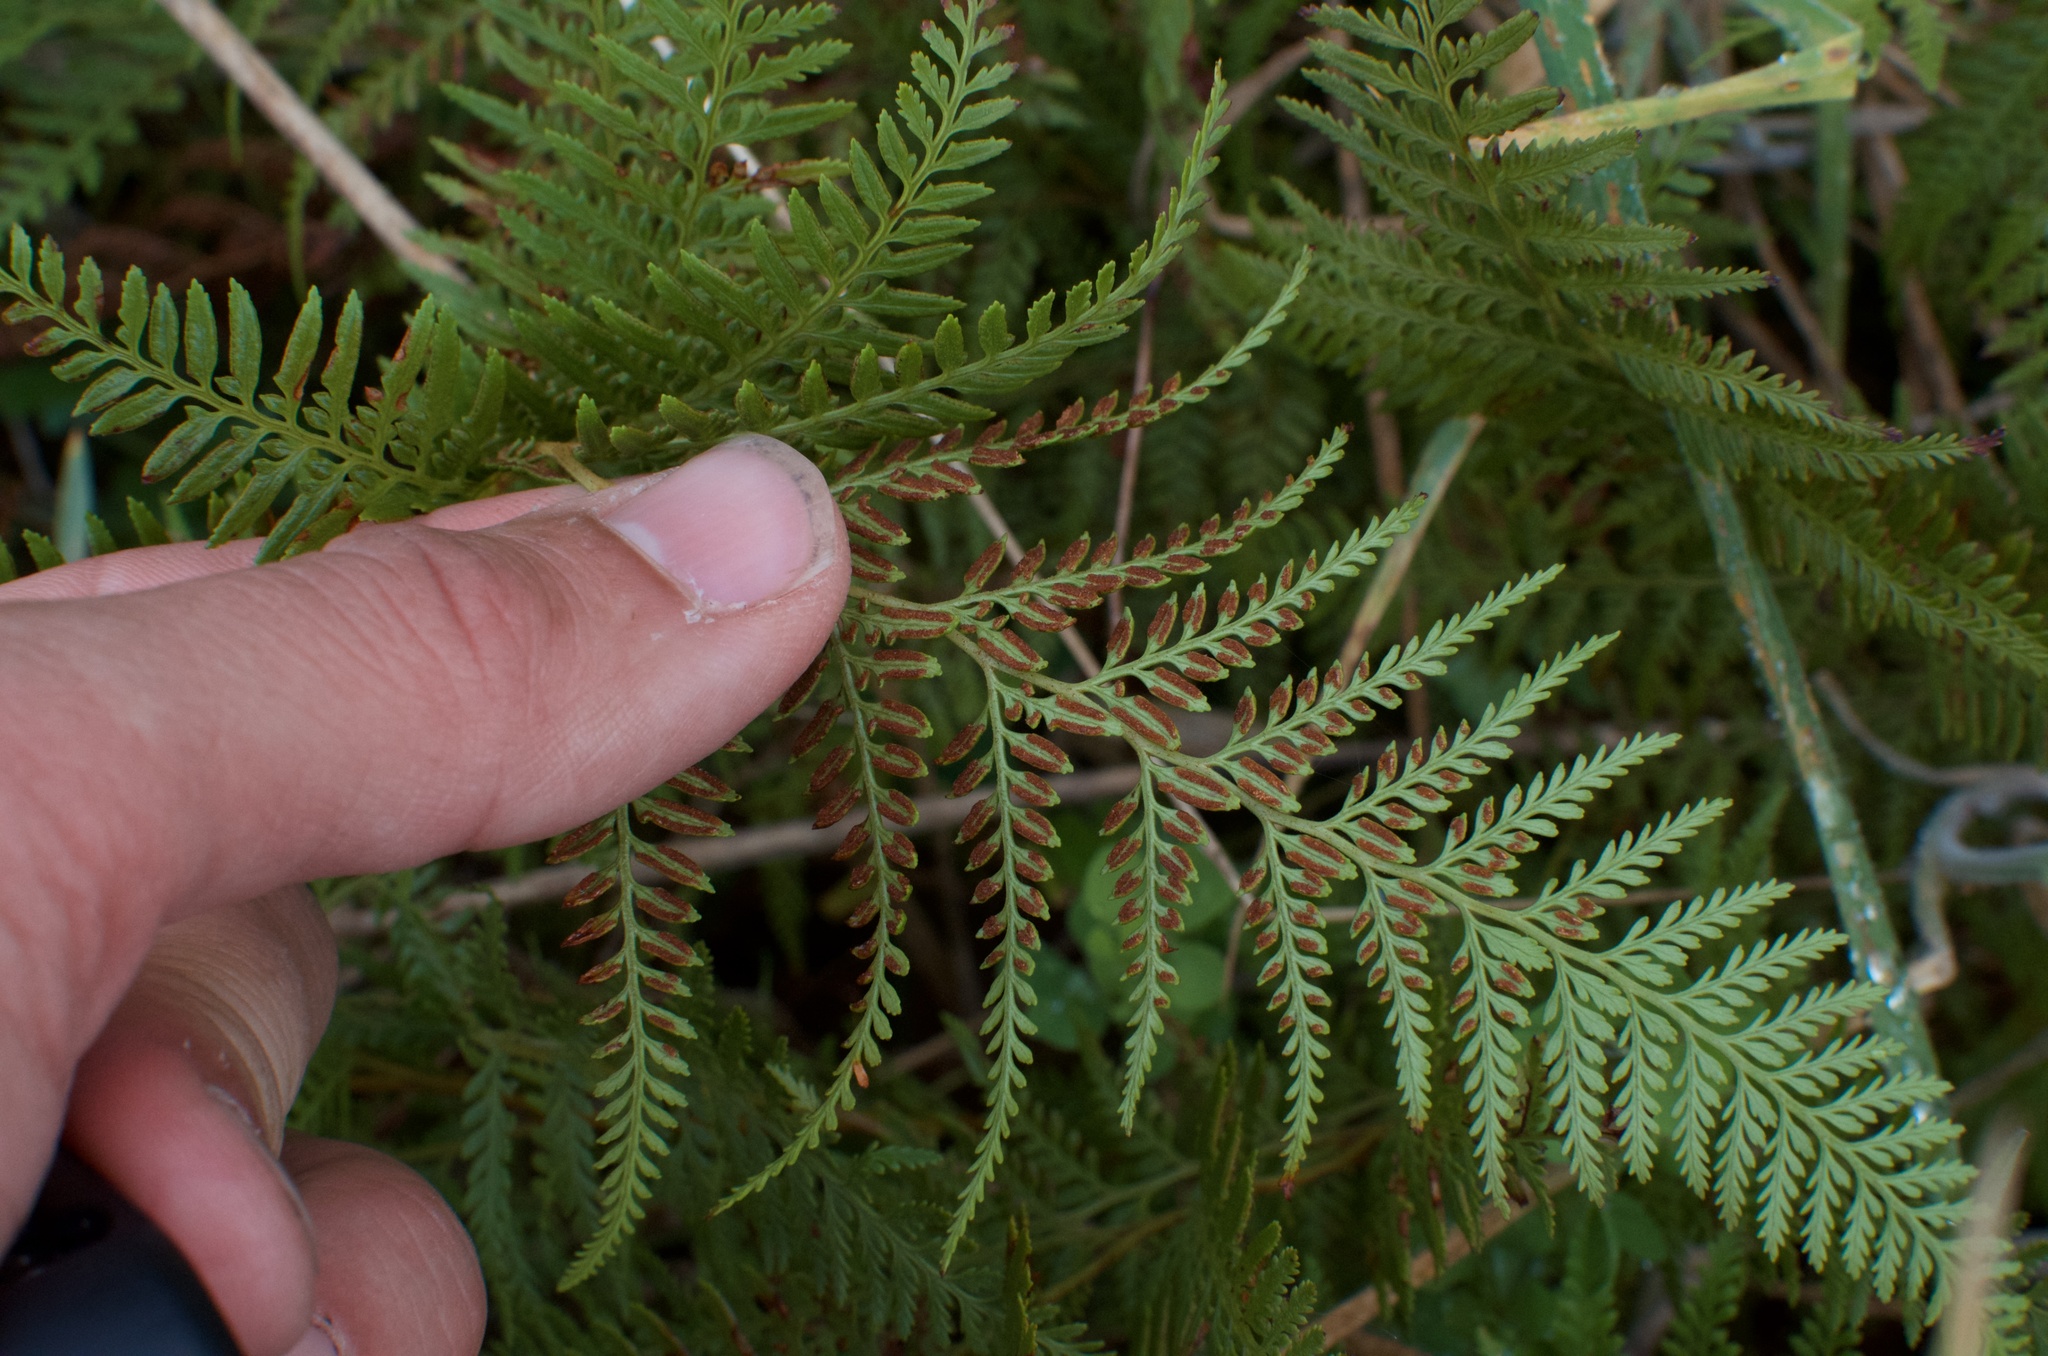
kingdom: Plantae
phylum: Tracheophyta
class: Polypodiopsida
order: Polypodiales
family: Dennstaedtiaceae
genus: Paesia
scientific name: Paesia scaberula
